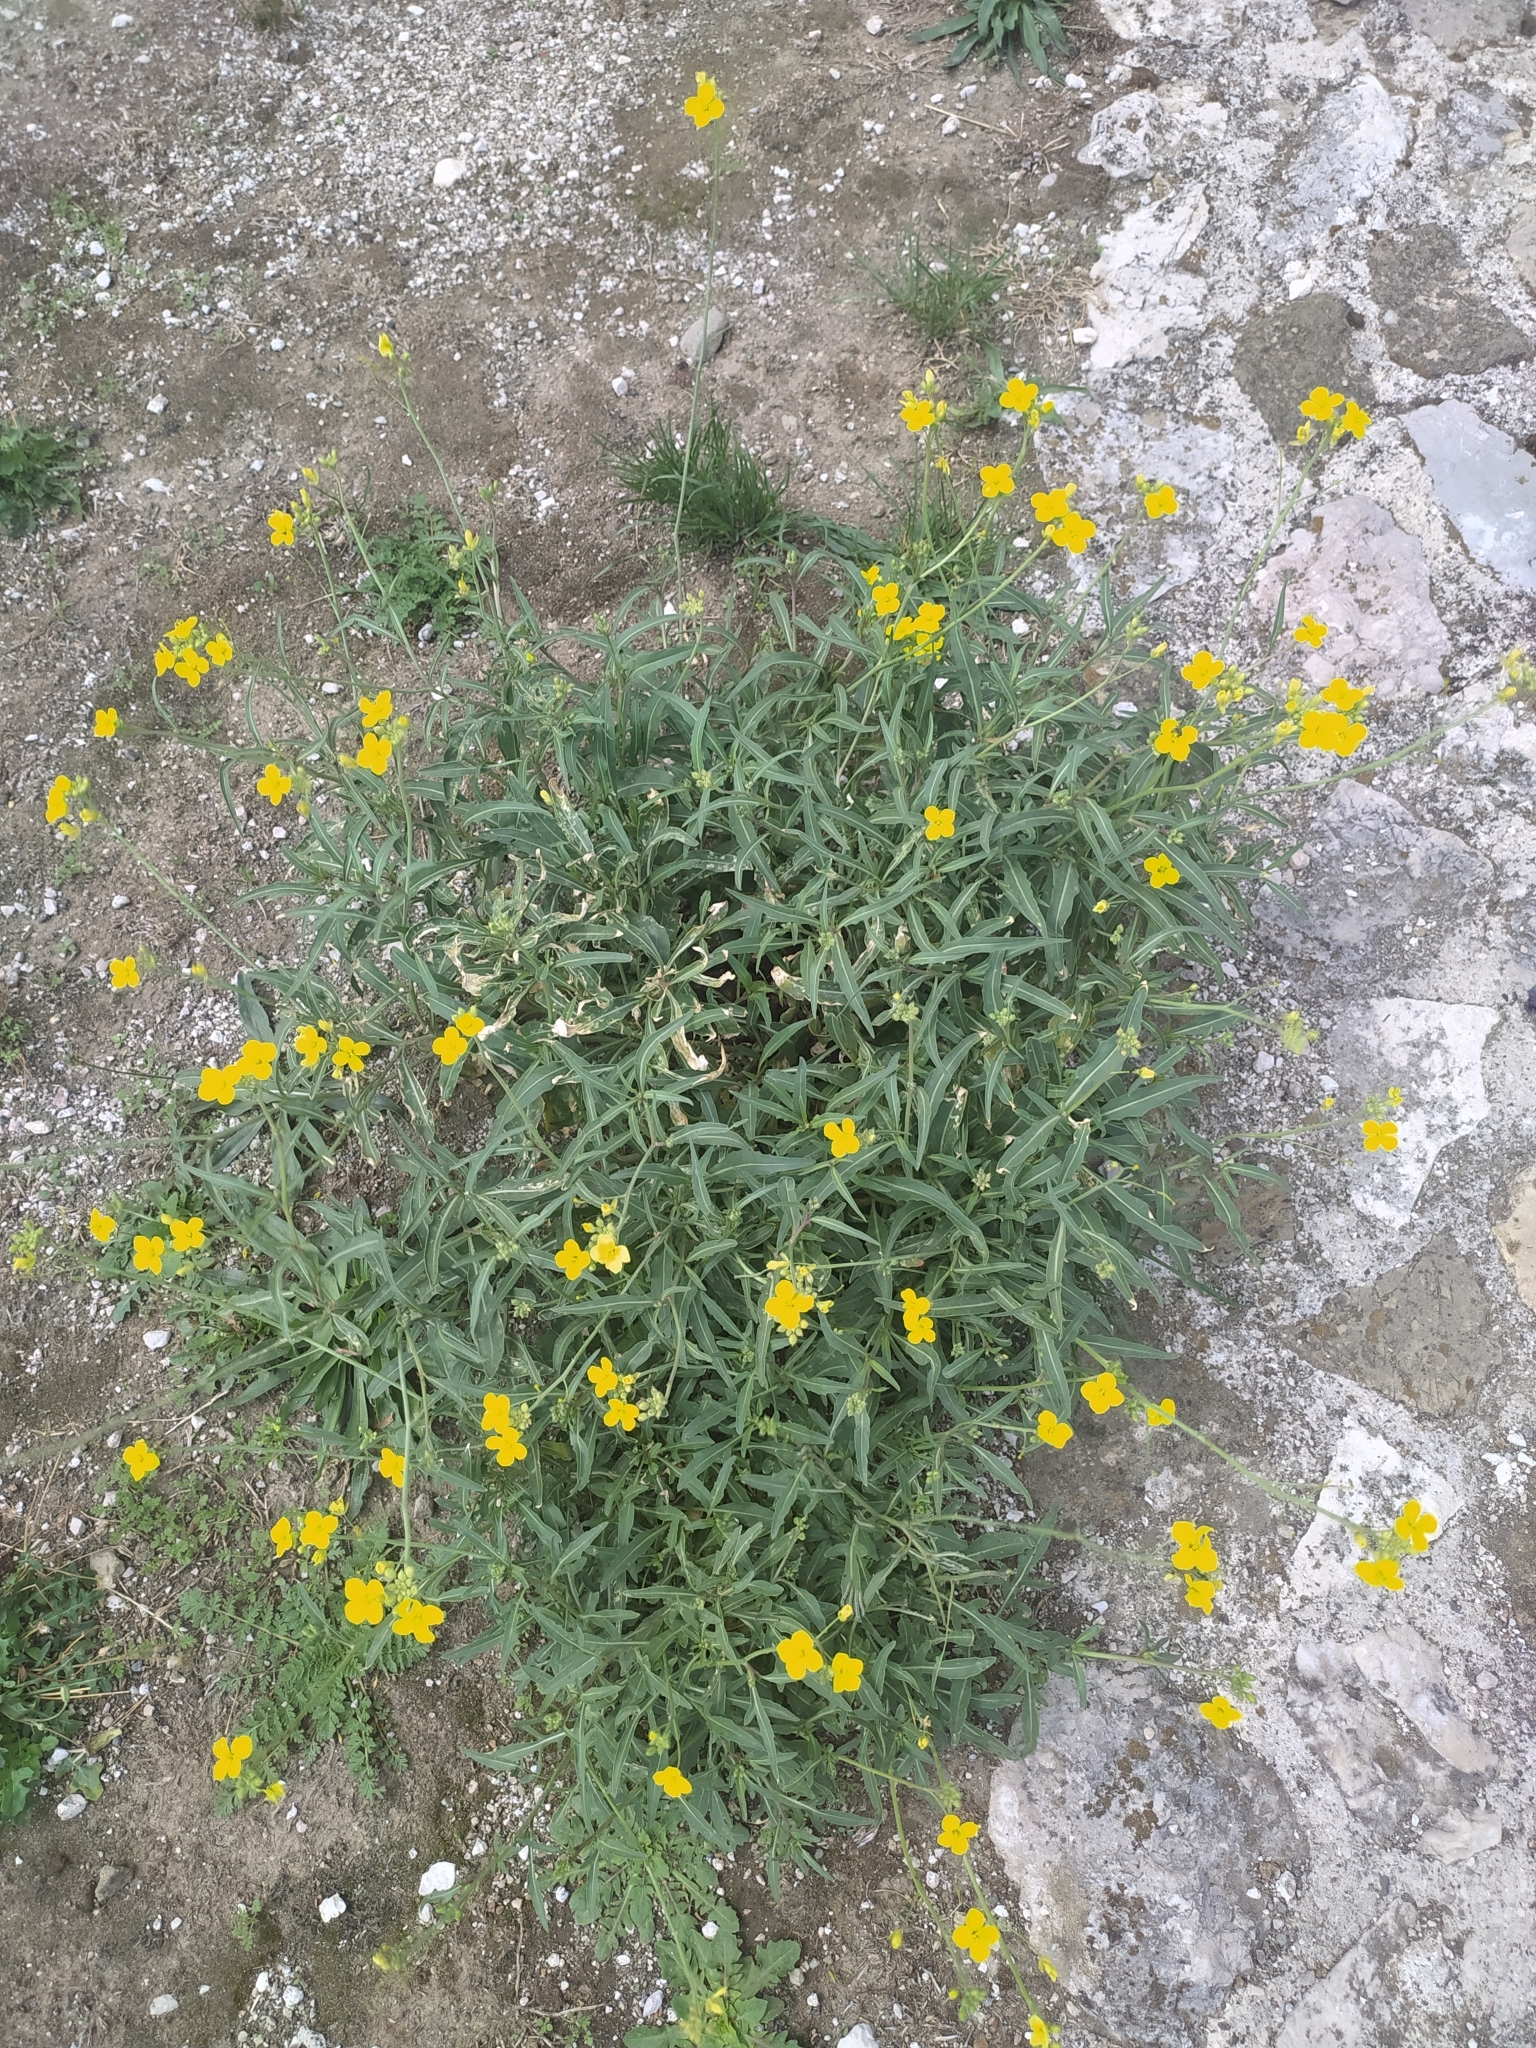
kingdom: Plantae
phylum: Tracheophyta
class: Magnoliopsida
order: Brassicales
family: Brassicaceae
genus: Diplotaxis
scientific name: Diplotaxis tenuifolia
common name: Perennial wall-rocket
